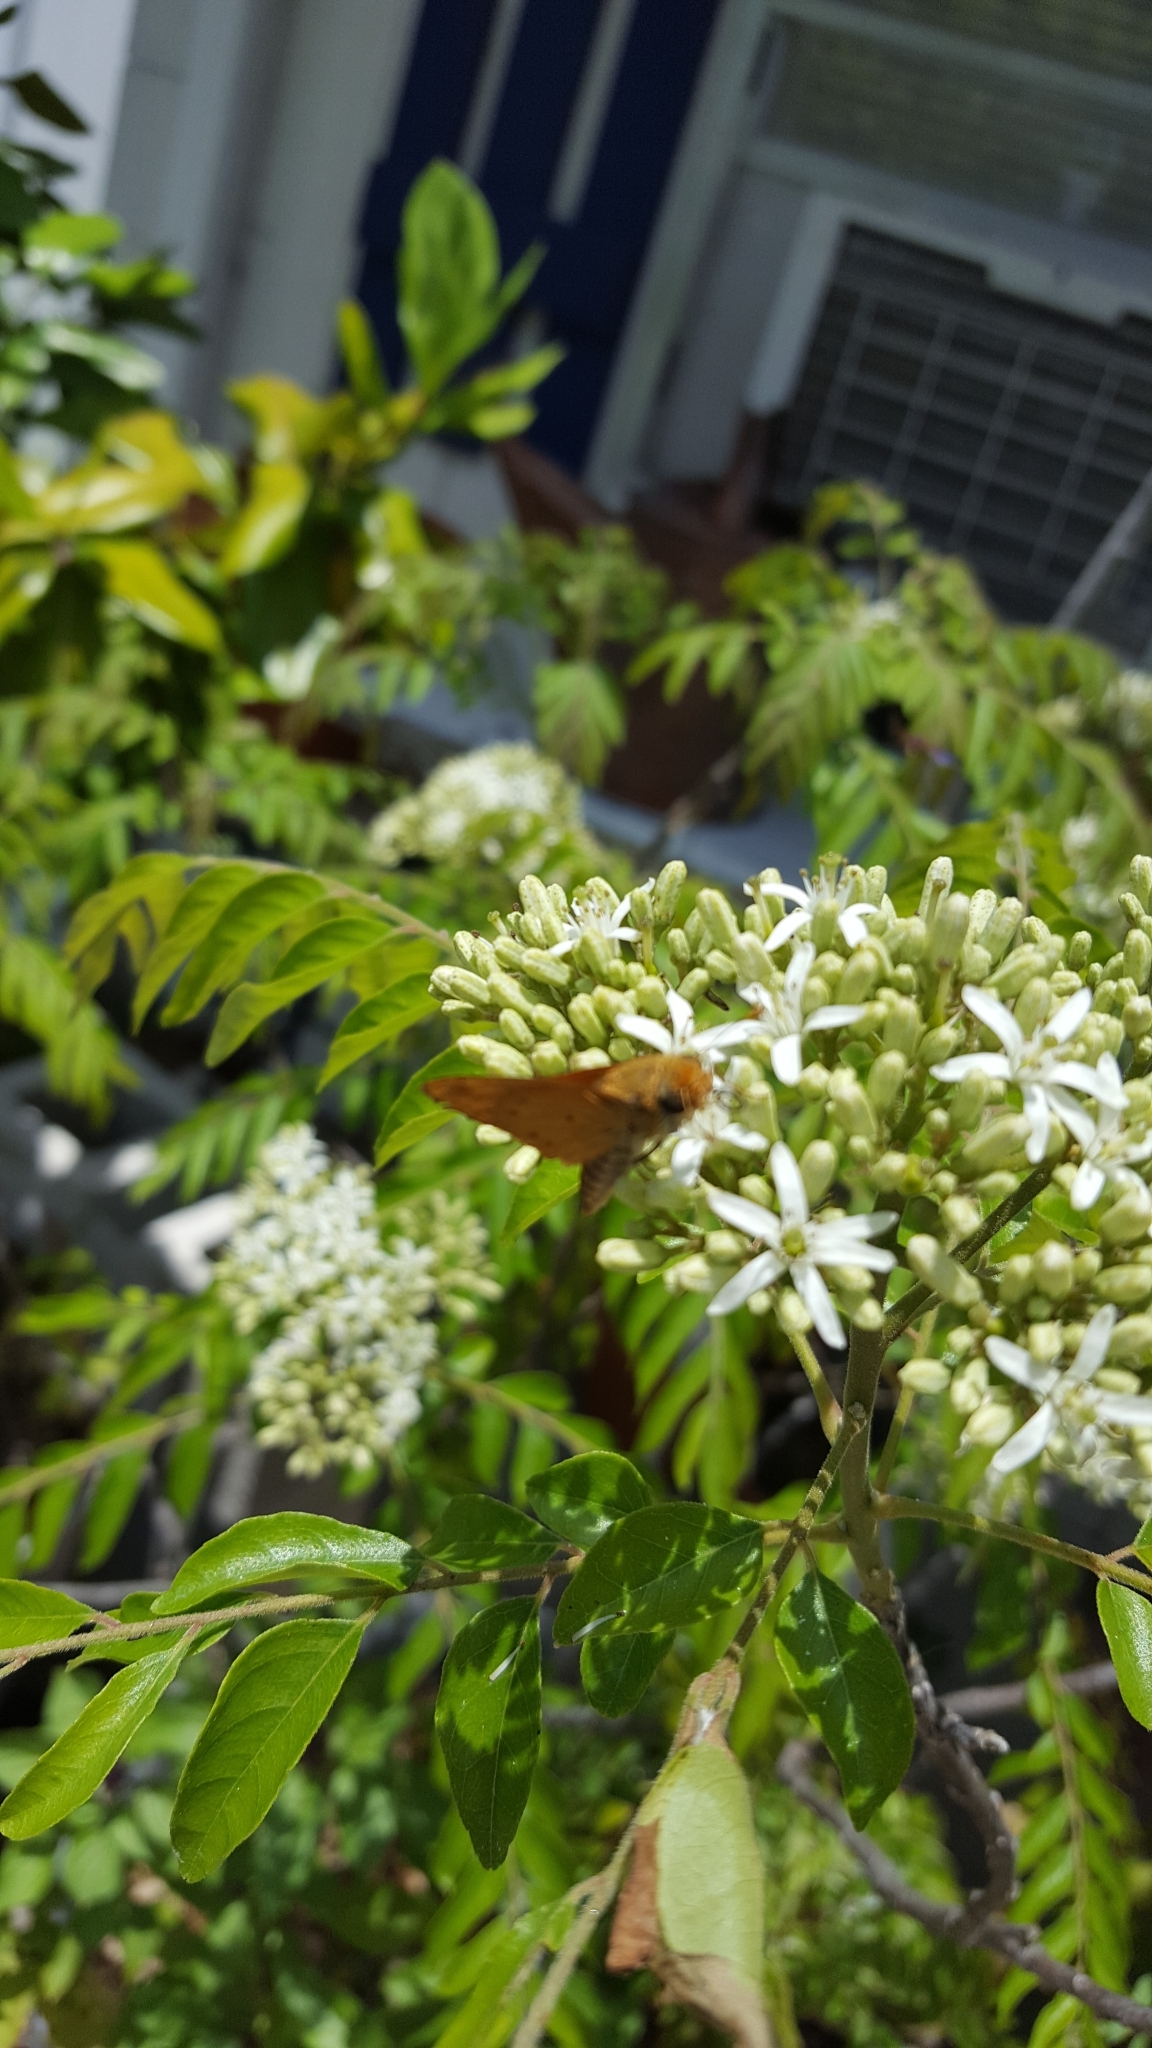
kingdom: Animalia
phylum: Arthropoda
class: Insecta
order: Lepidoptera
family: Hesperiidae
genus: Hylephila
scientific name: Hylephila phyleus
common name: Fiery skipper
